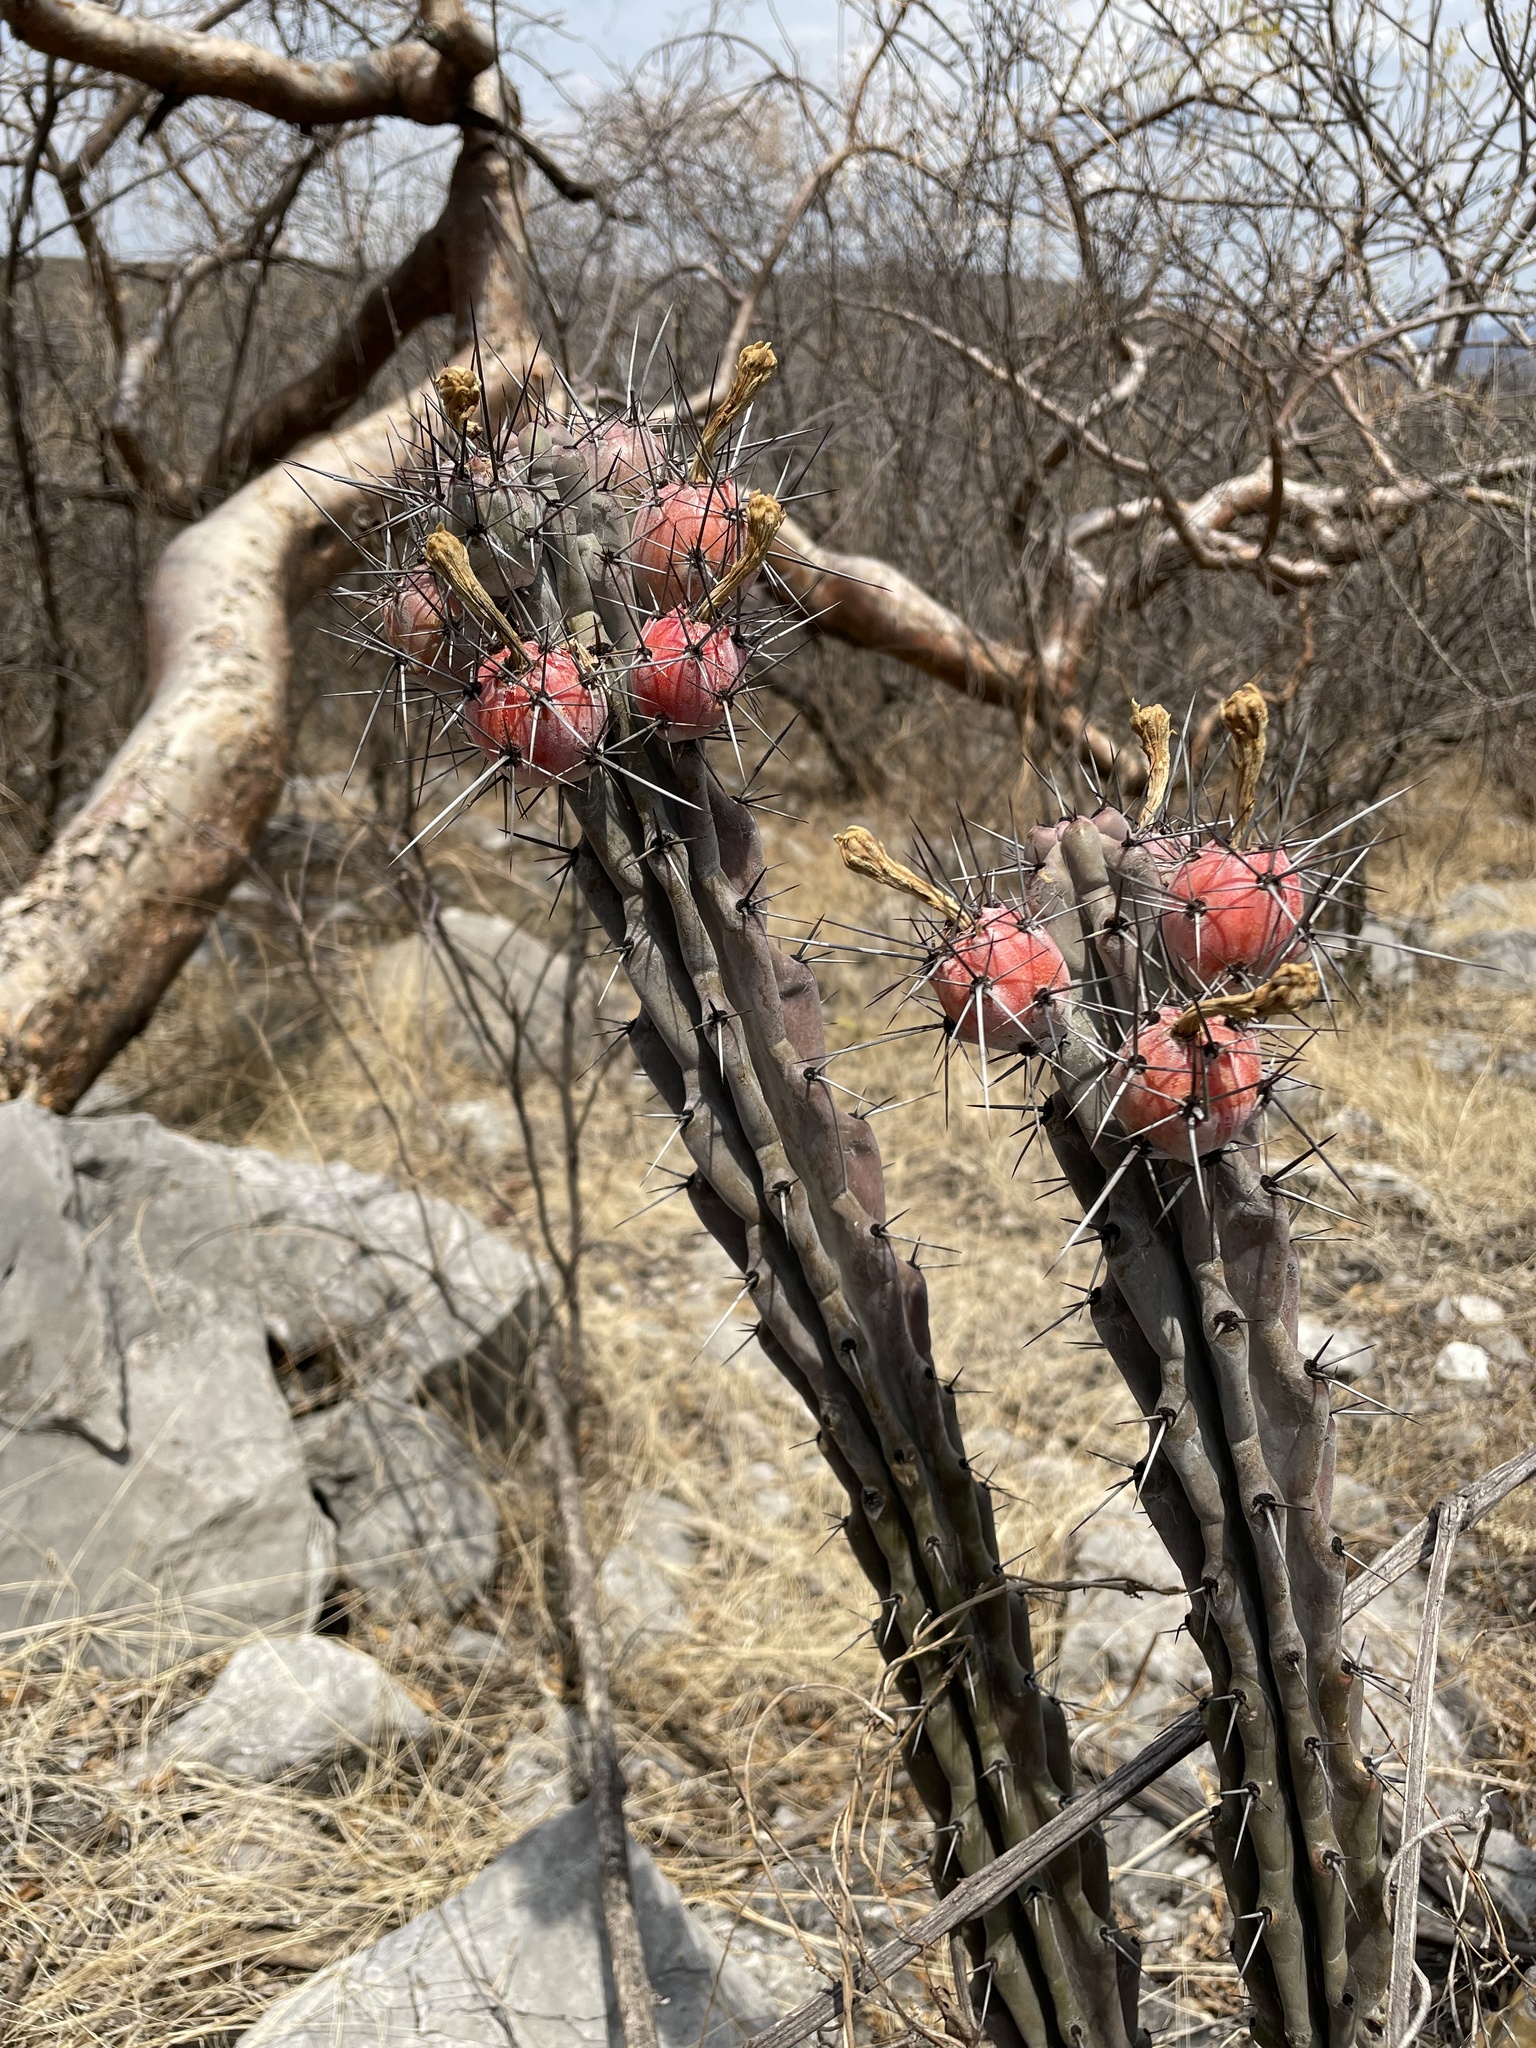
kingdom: Plantae
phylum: Tracheophyta
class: Magnoliopsida
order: Caryophyllales
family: Cactaceae
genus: Stenocereus
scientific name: Stenocereus beneckei
